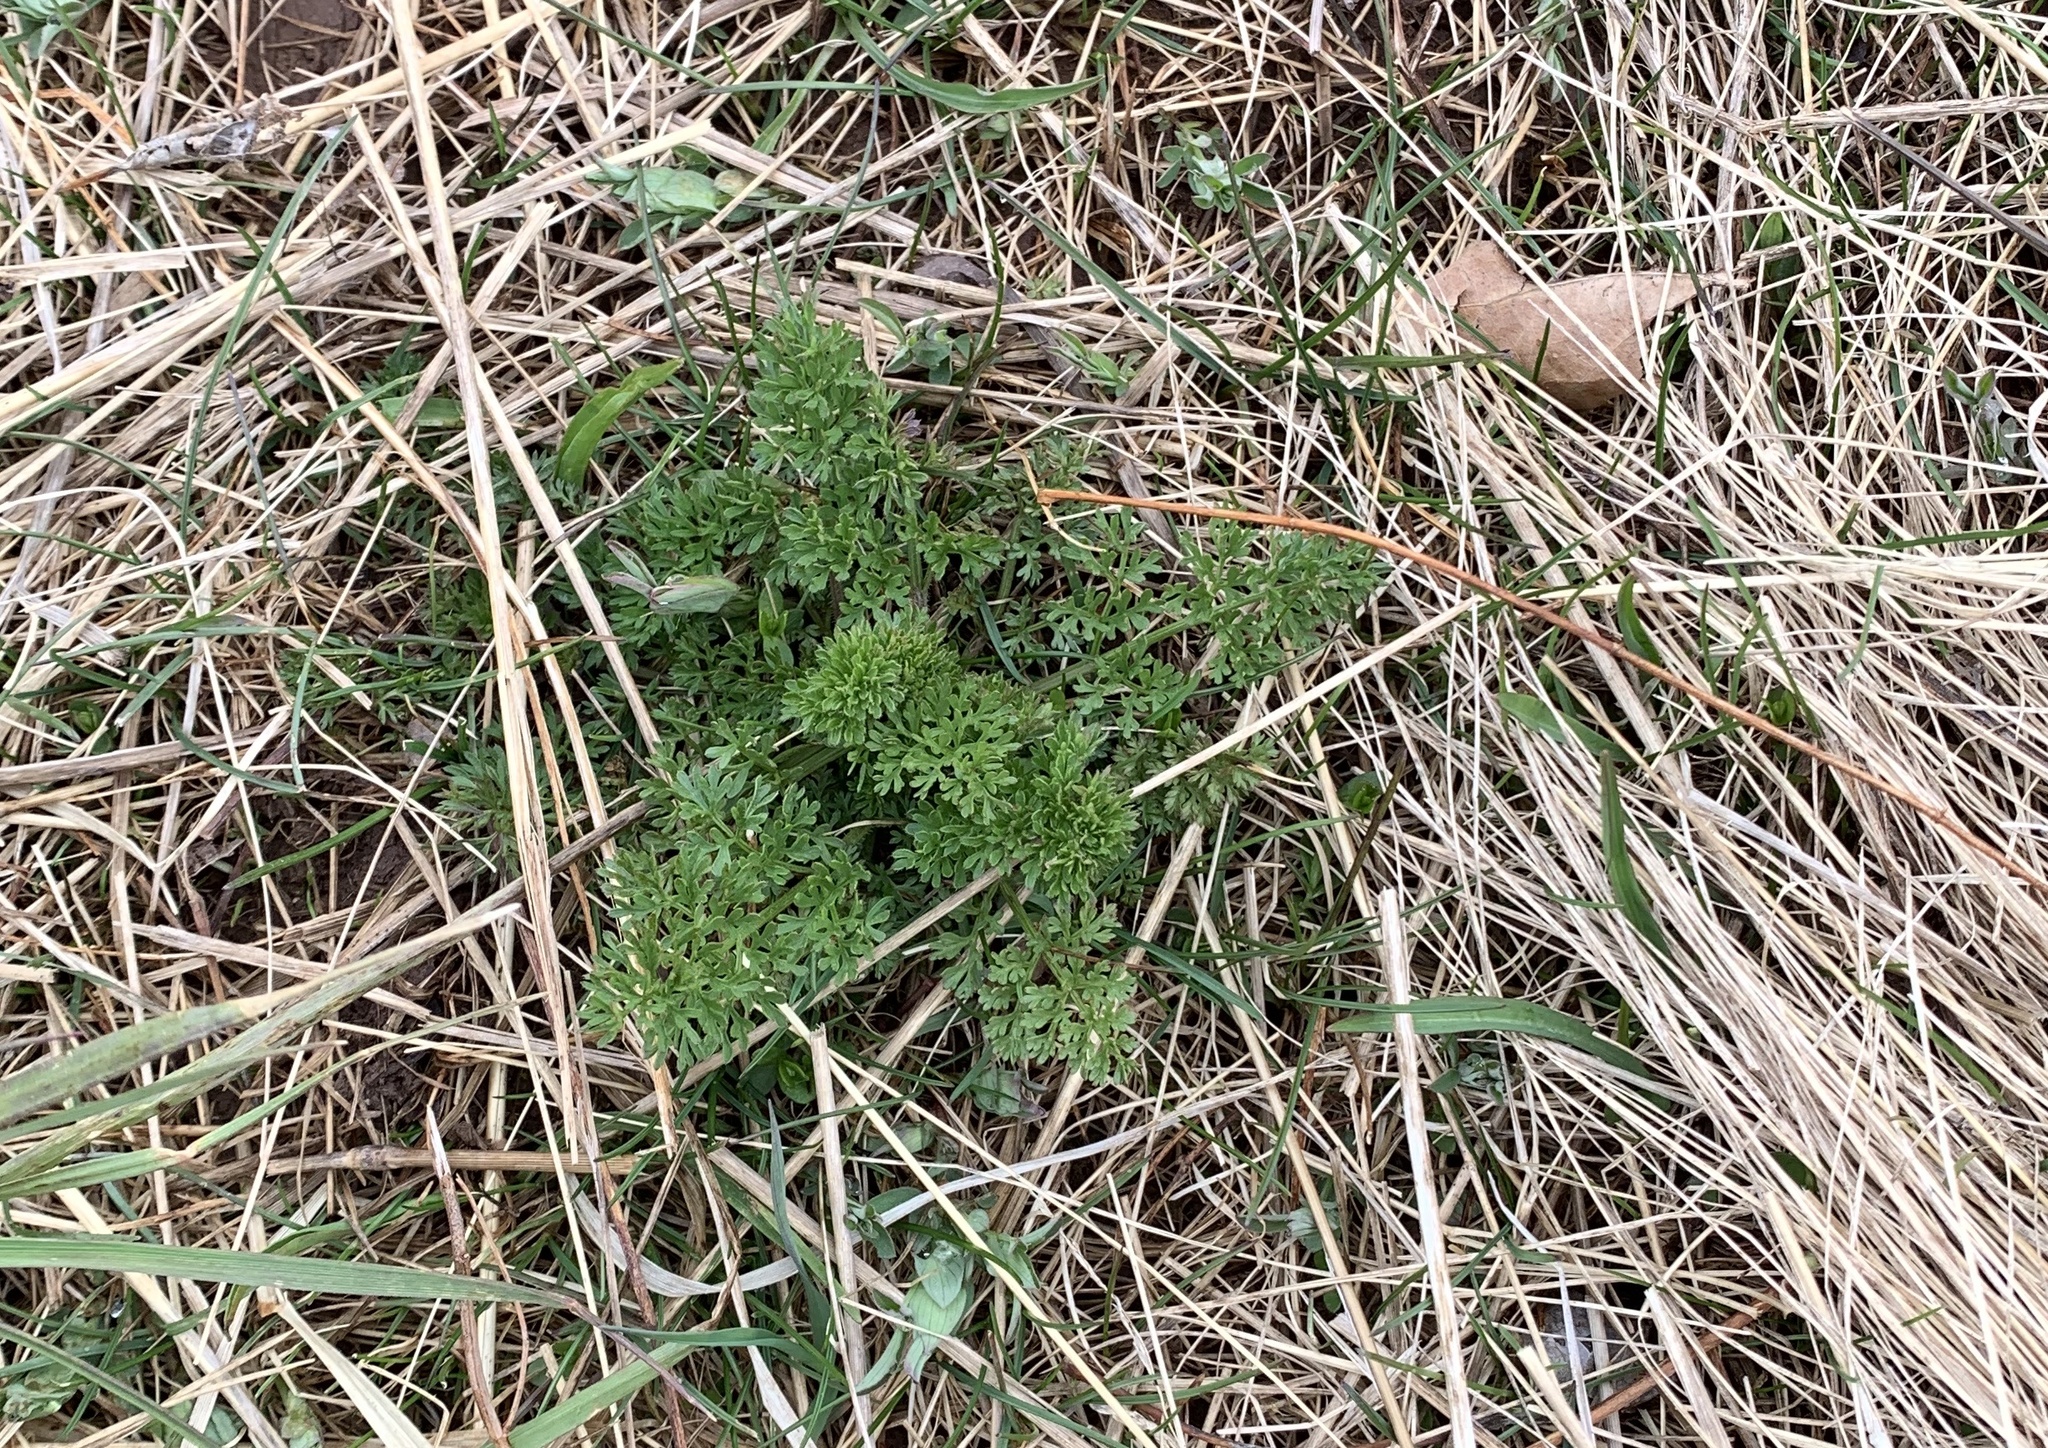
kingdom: Plantae
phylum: Tracheophyta
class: Magnoliopsida
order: Apiales
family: Apiaceae
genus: Daucus
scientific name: Daucus carota
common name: Wild carrot
